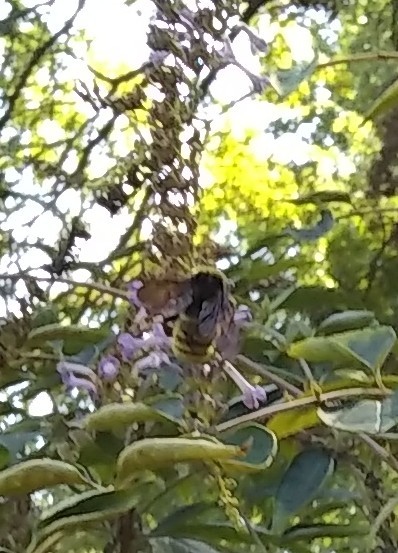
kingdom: Animalia
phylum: Arthropoda
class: Insecta
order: Hymenoptera
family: Apidae
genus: Bombus
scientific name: Bombus pensylvanicus
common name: Bumble bee
